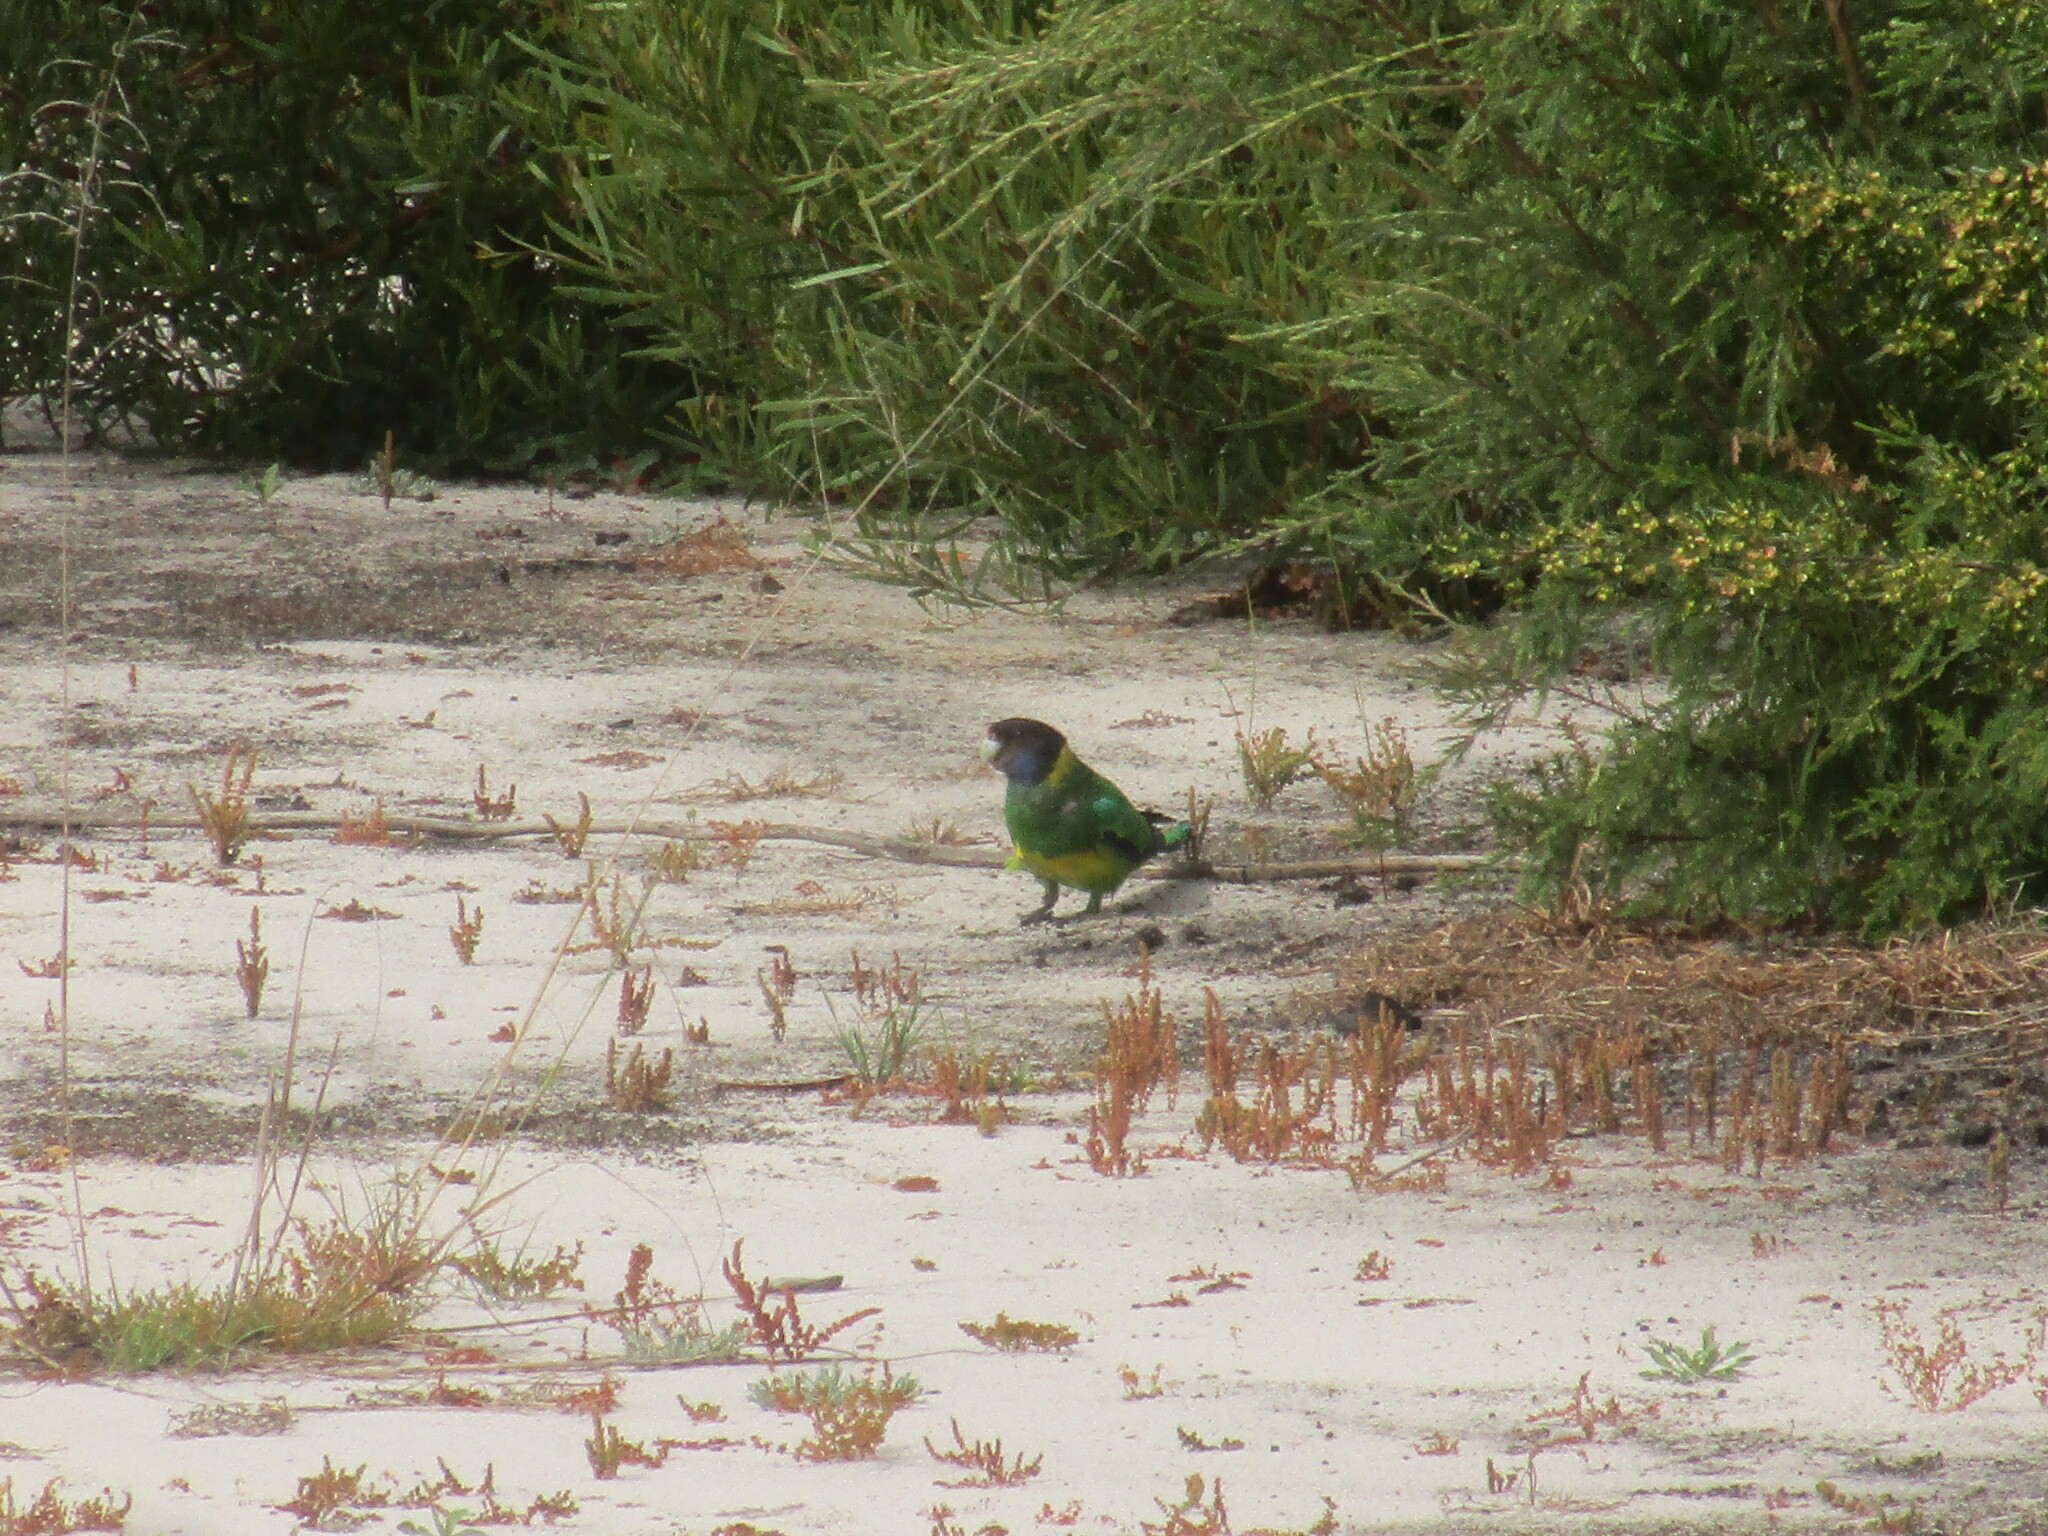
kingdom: Animalia
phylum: Chordata
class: Aves
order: Psittaciformes
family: Psittacidae
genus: Barnardius
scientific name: Barnardius
